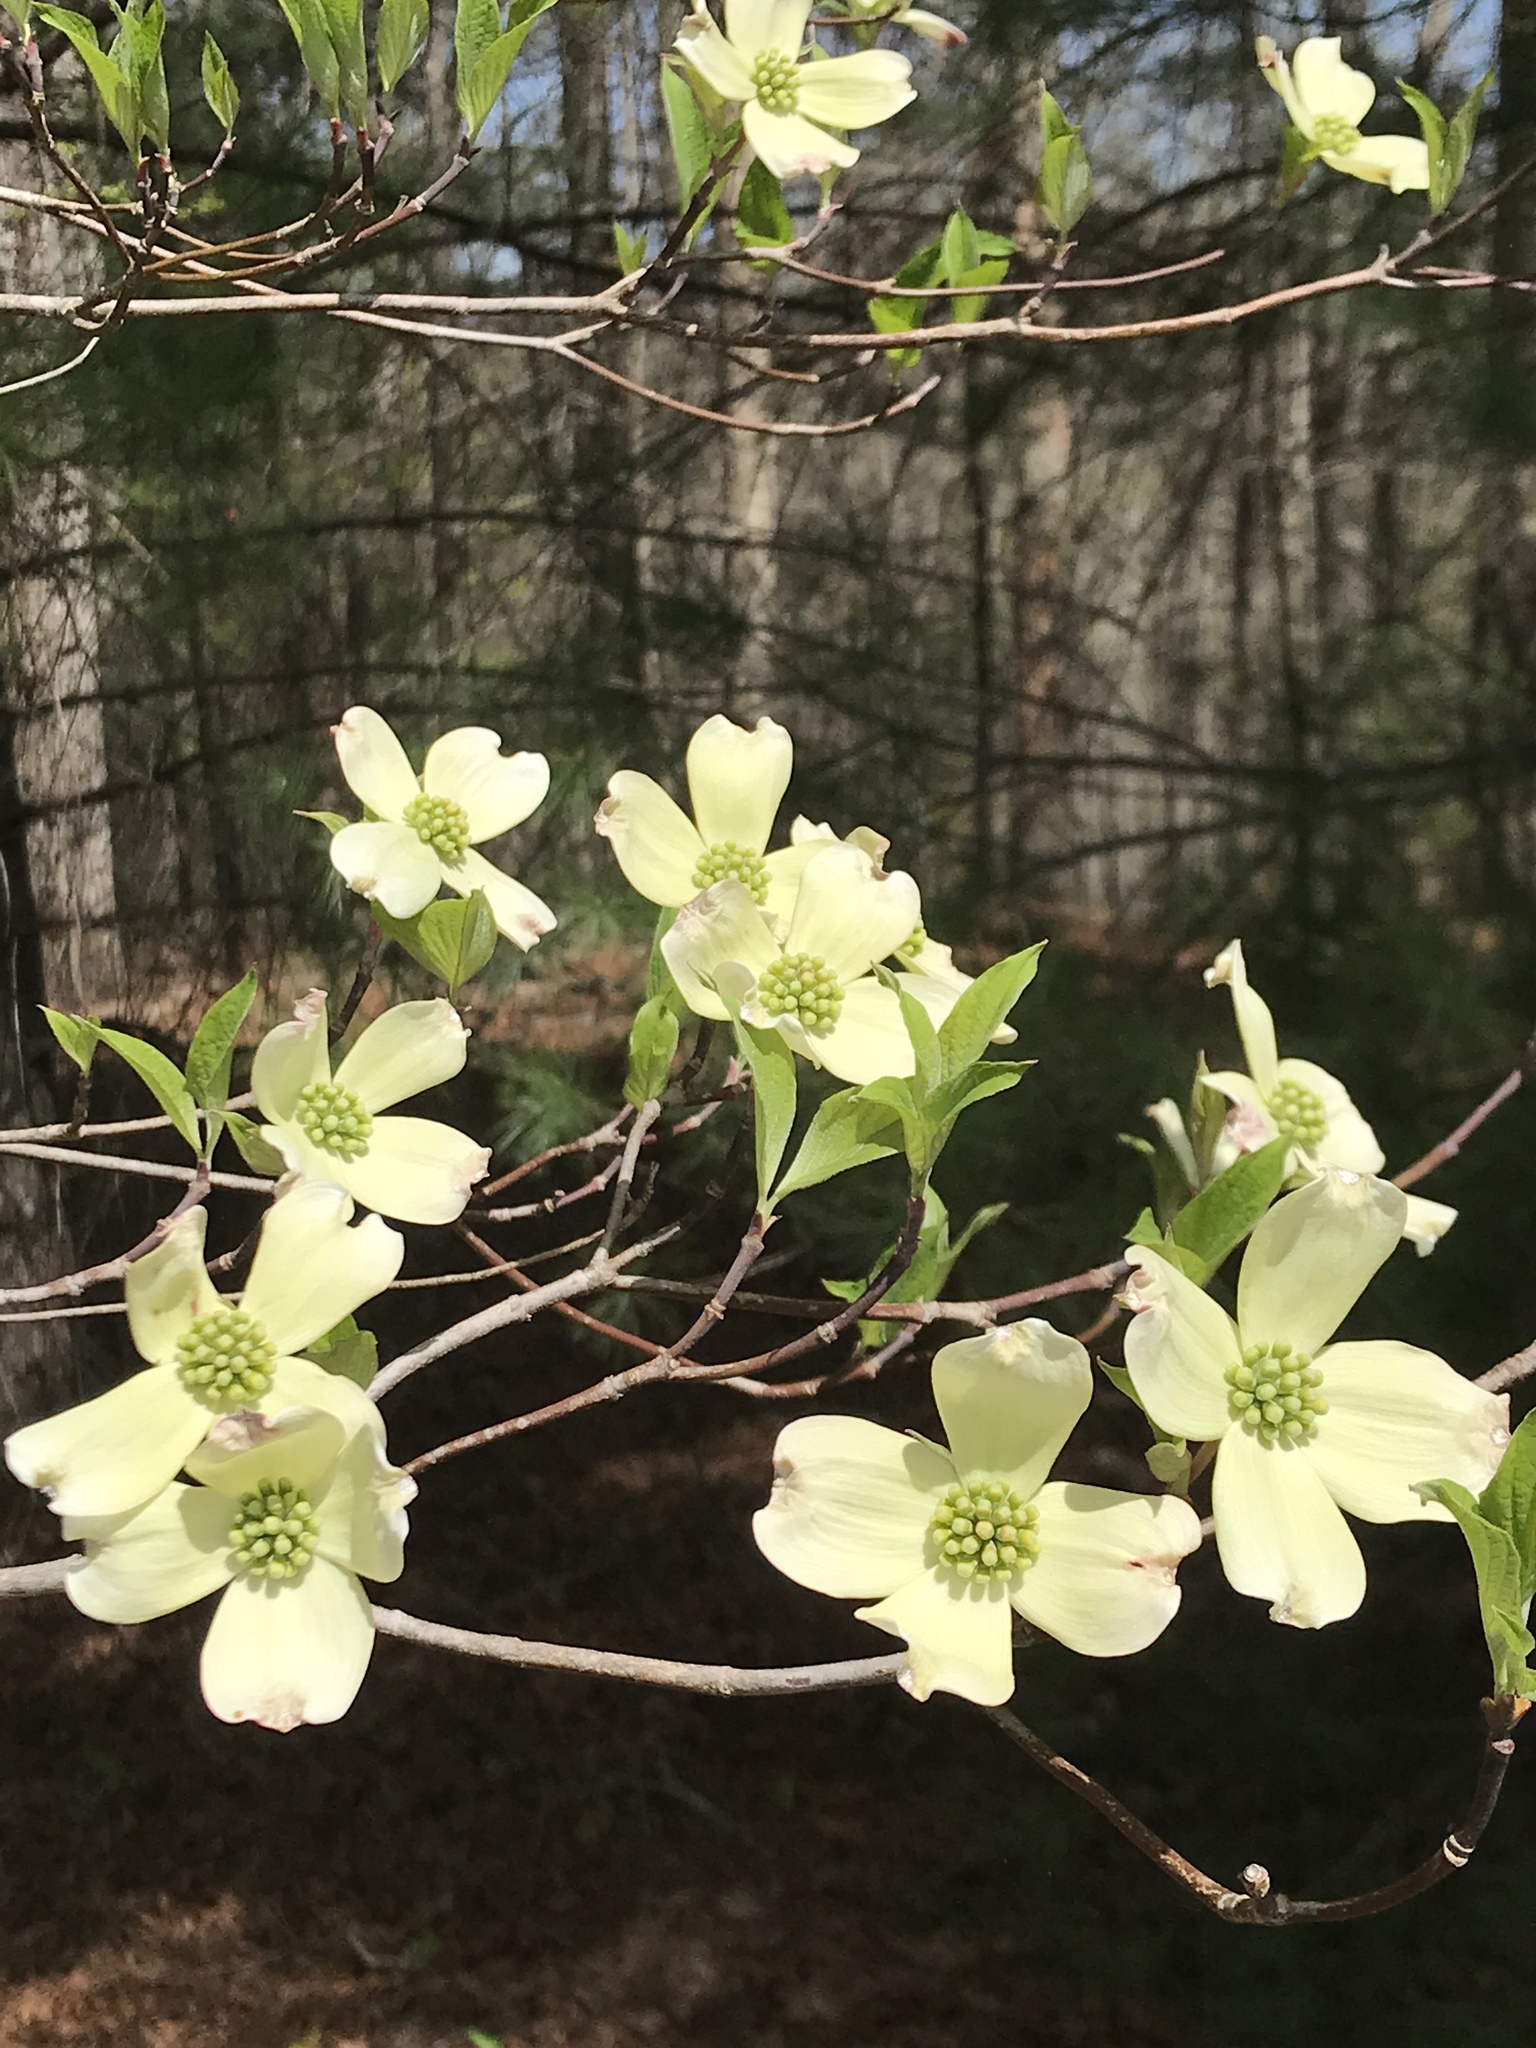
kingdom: Plantae
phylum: Tracheophyta
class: Magnoliopsida
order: Cornales
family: Cornaceae
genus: Cornus
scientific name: Cornus florida
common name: Flowering dogwood
